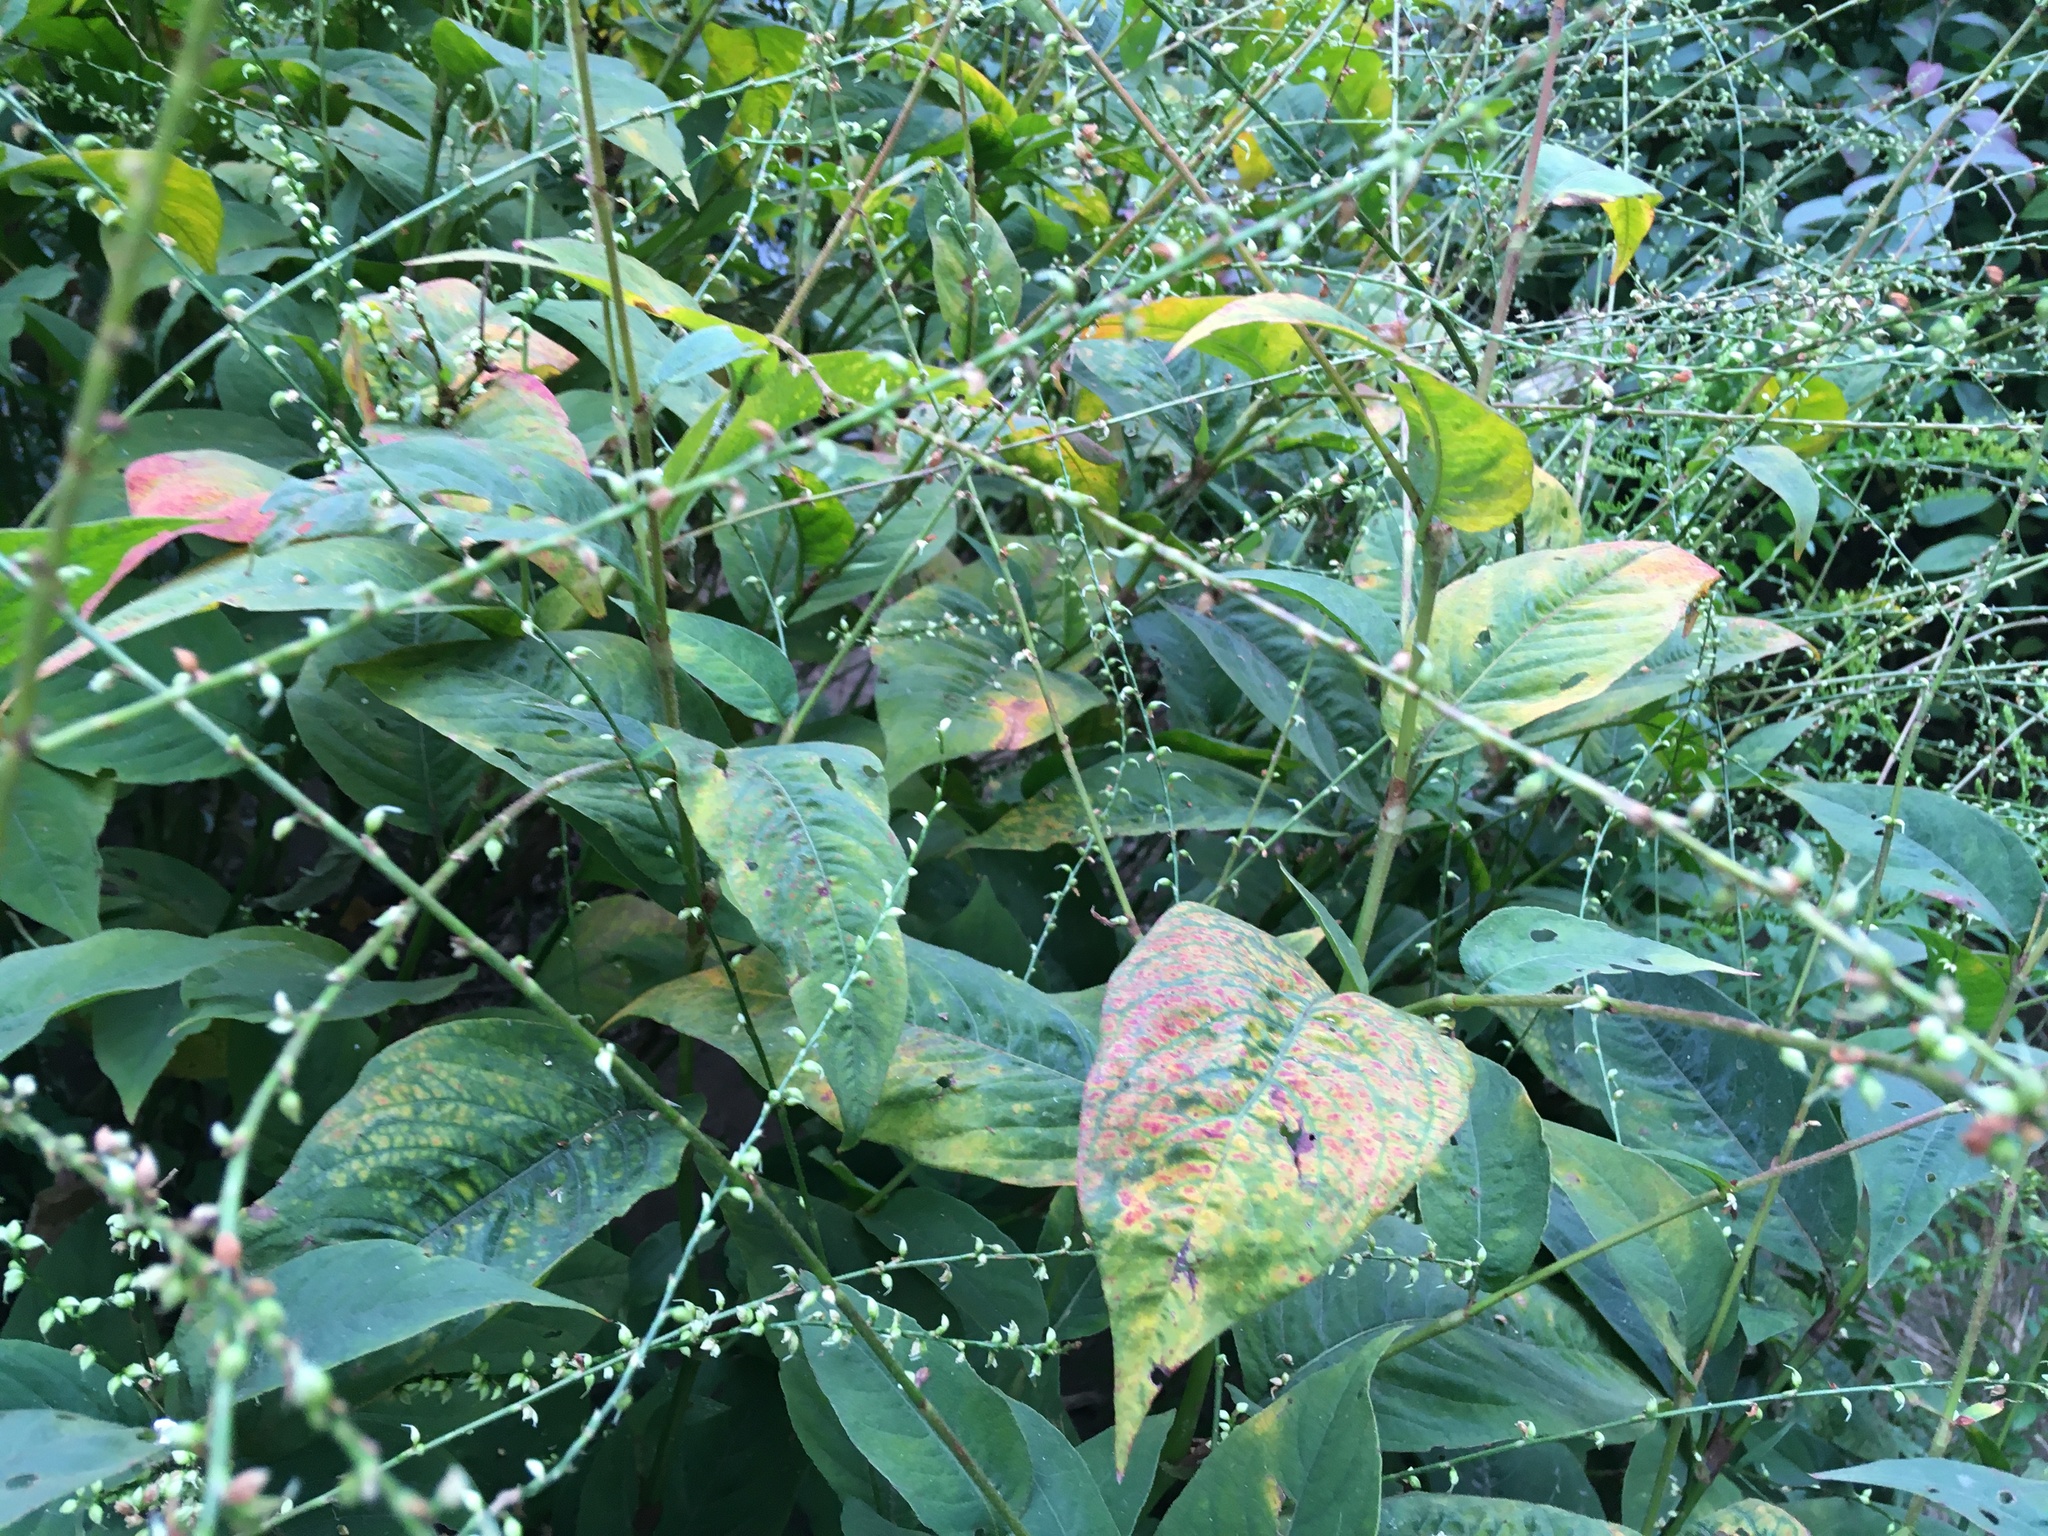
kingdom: Plantae
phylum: Tracheophyta
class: Magnoliopsida
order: Caryophyllales
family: Polygonaceae
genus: Persicaria
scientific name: Persicaria virginiana
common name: Jumpseed
